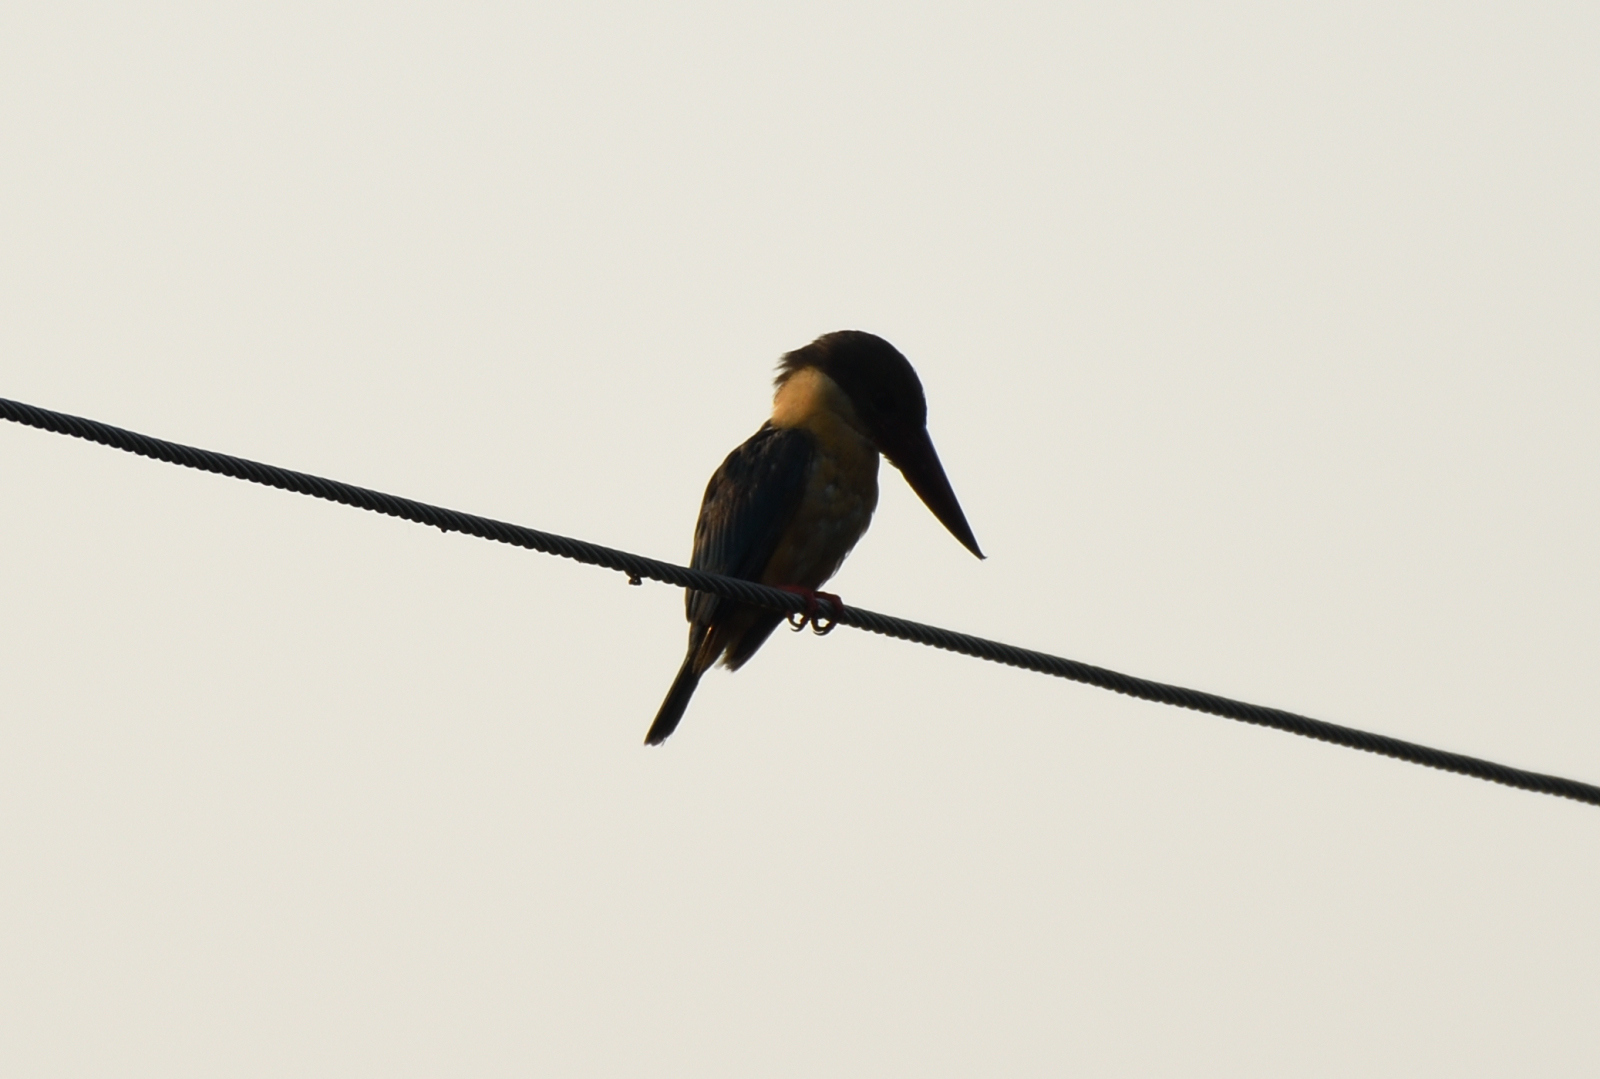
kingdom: Animalia
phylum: Chordata
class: Aves
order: Coraciiformes
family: Alcedinidae
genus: Pelargopsis
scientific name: Pelargopsis capensis
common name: Stork-billed kingfisher
